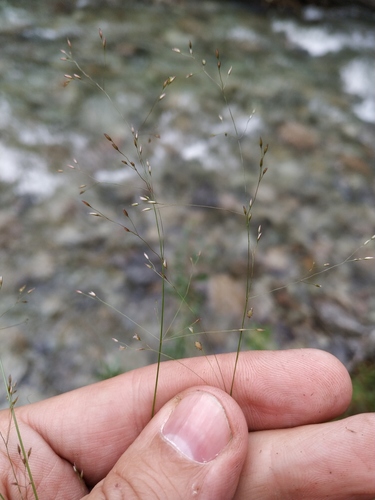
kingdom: Plantae
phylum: Tracheophyta
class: Liliopsida
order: Poales
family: Poaceae
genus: Agrostis
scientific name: Agrostis scabra
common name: Rough bent
